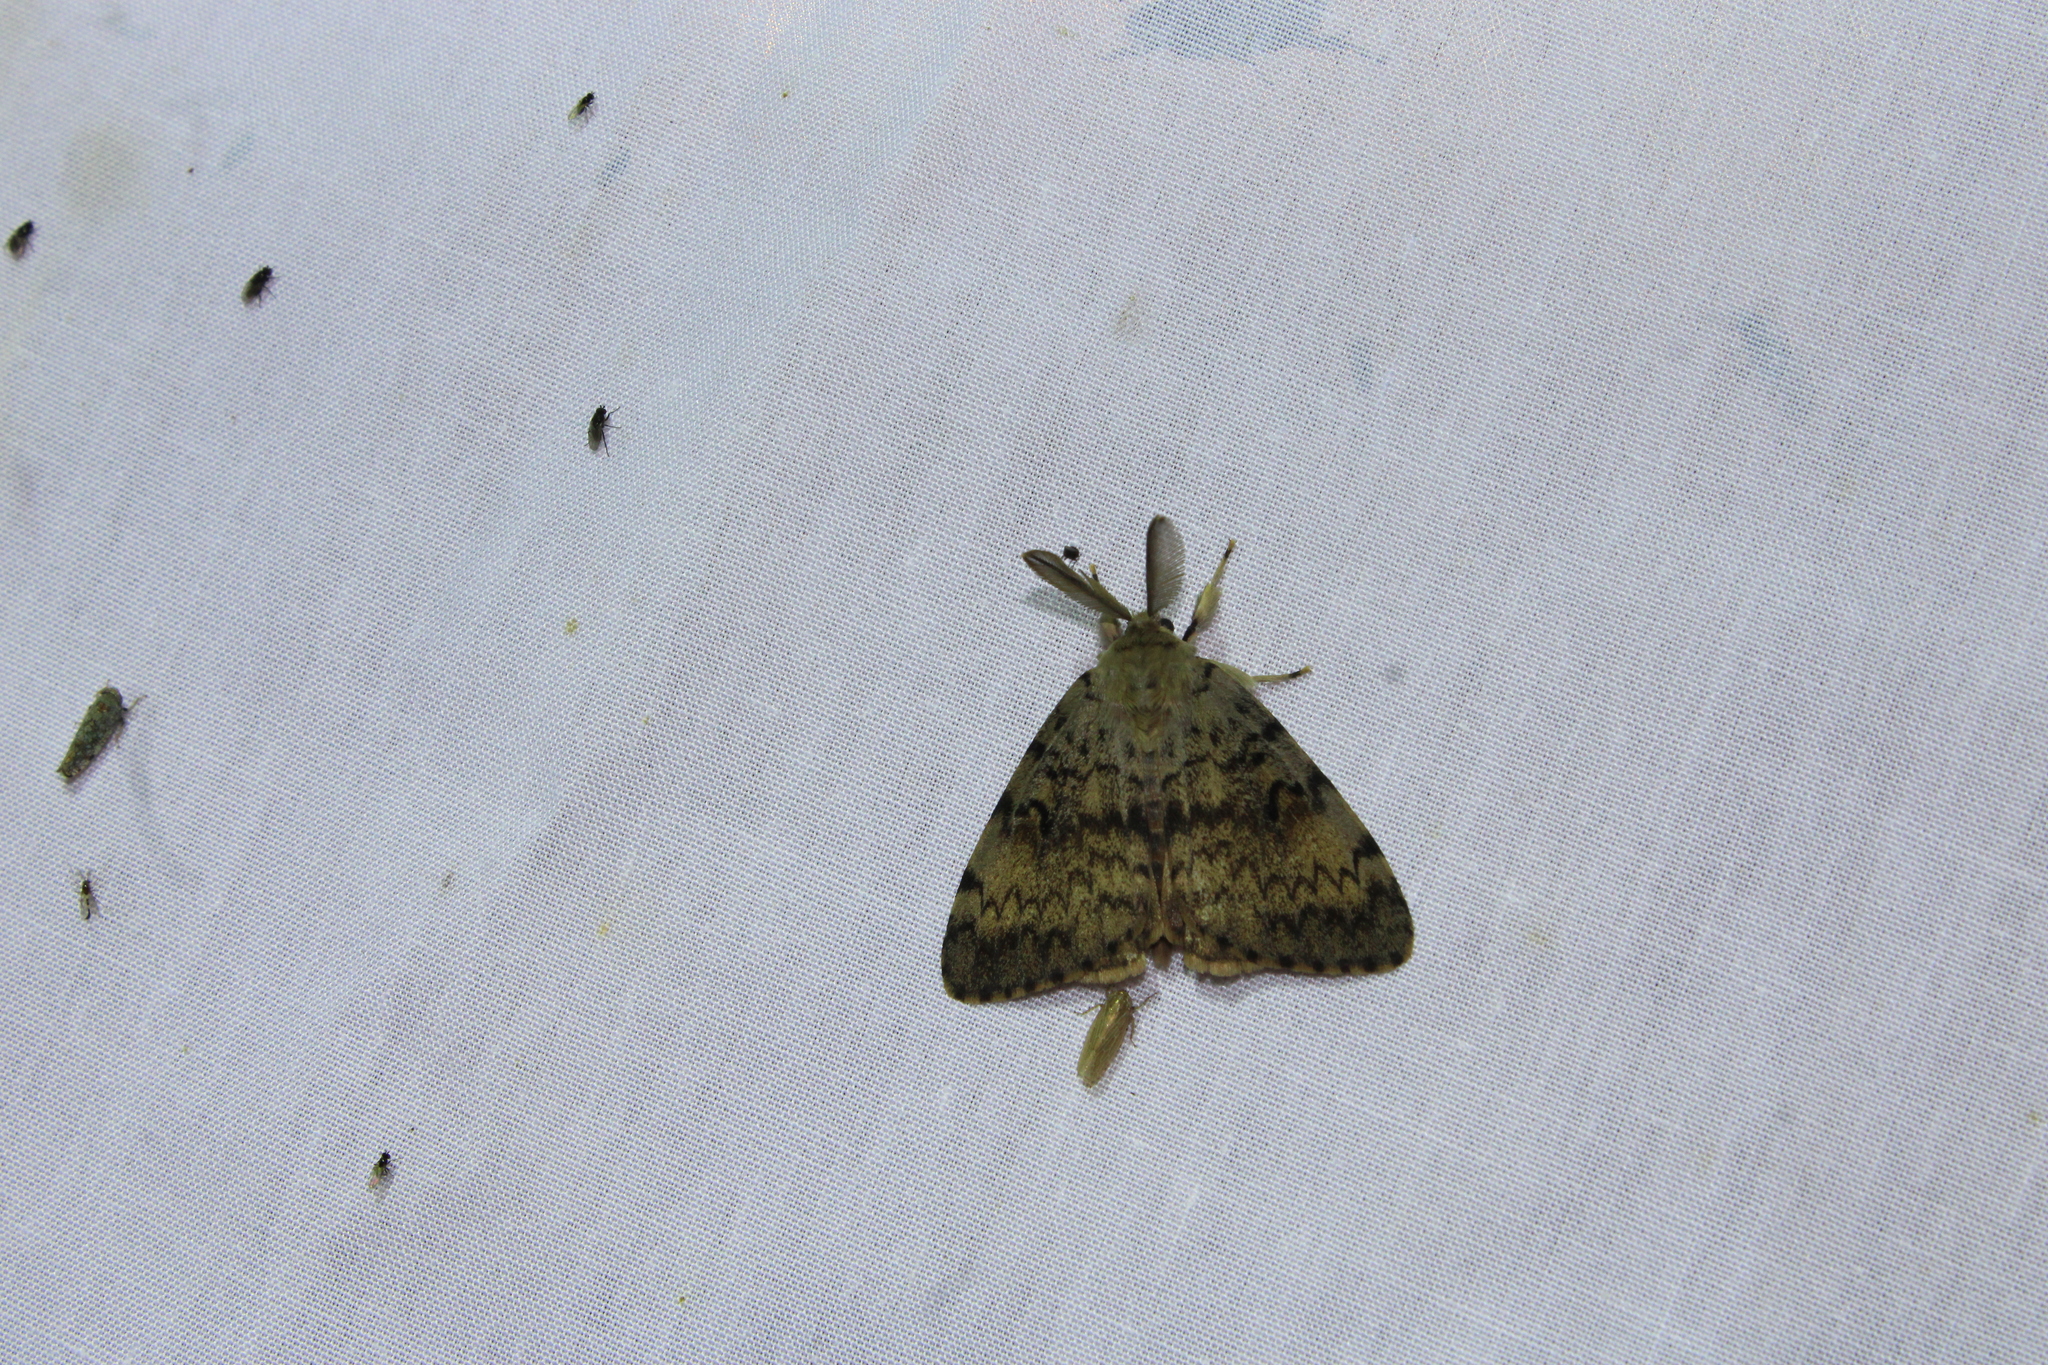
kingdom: Animalia
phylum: Arthropoda
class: Insecta
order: Lepidoptera
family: Erebidae
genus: Lymantria
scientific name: Lymantria dispar
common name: Gypsy moth
